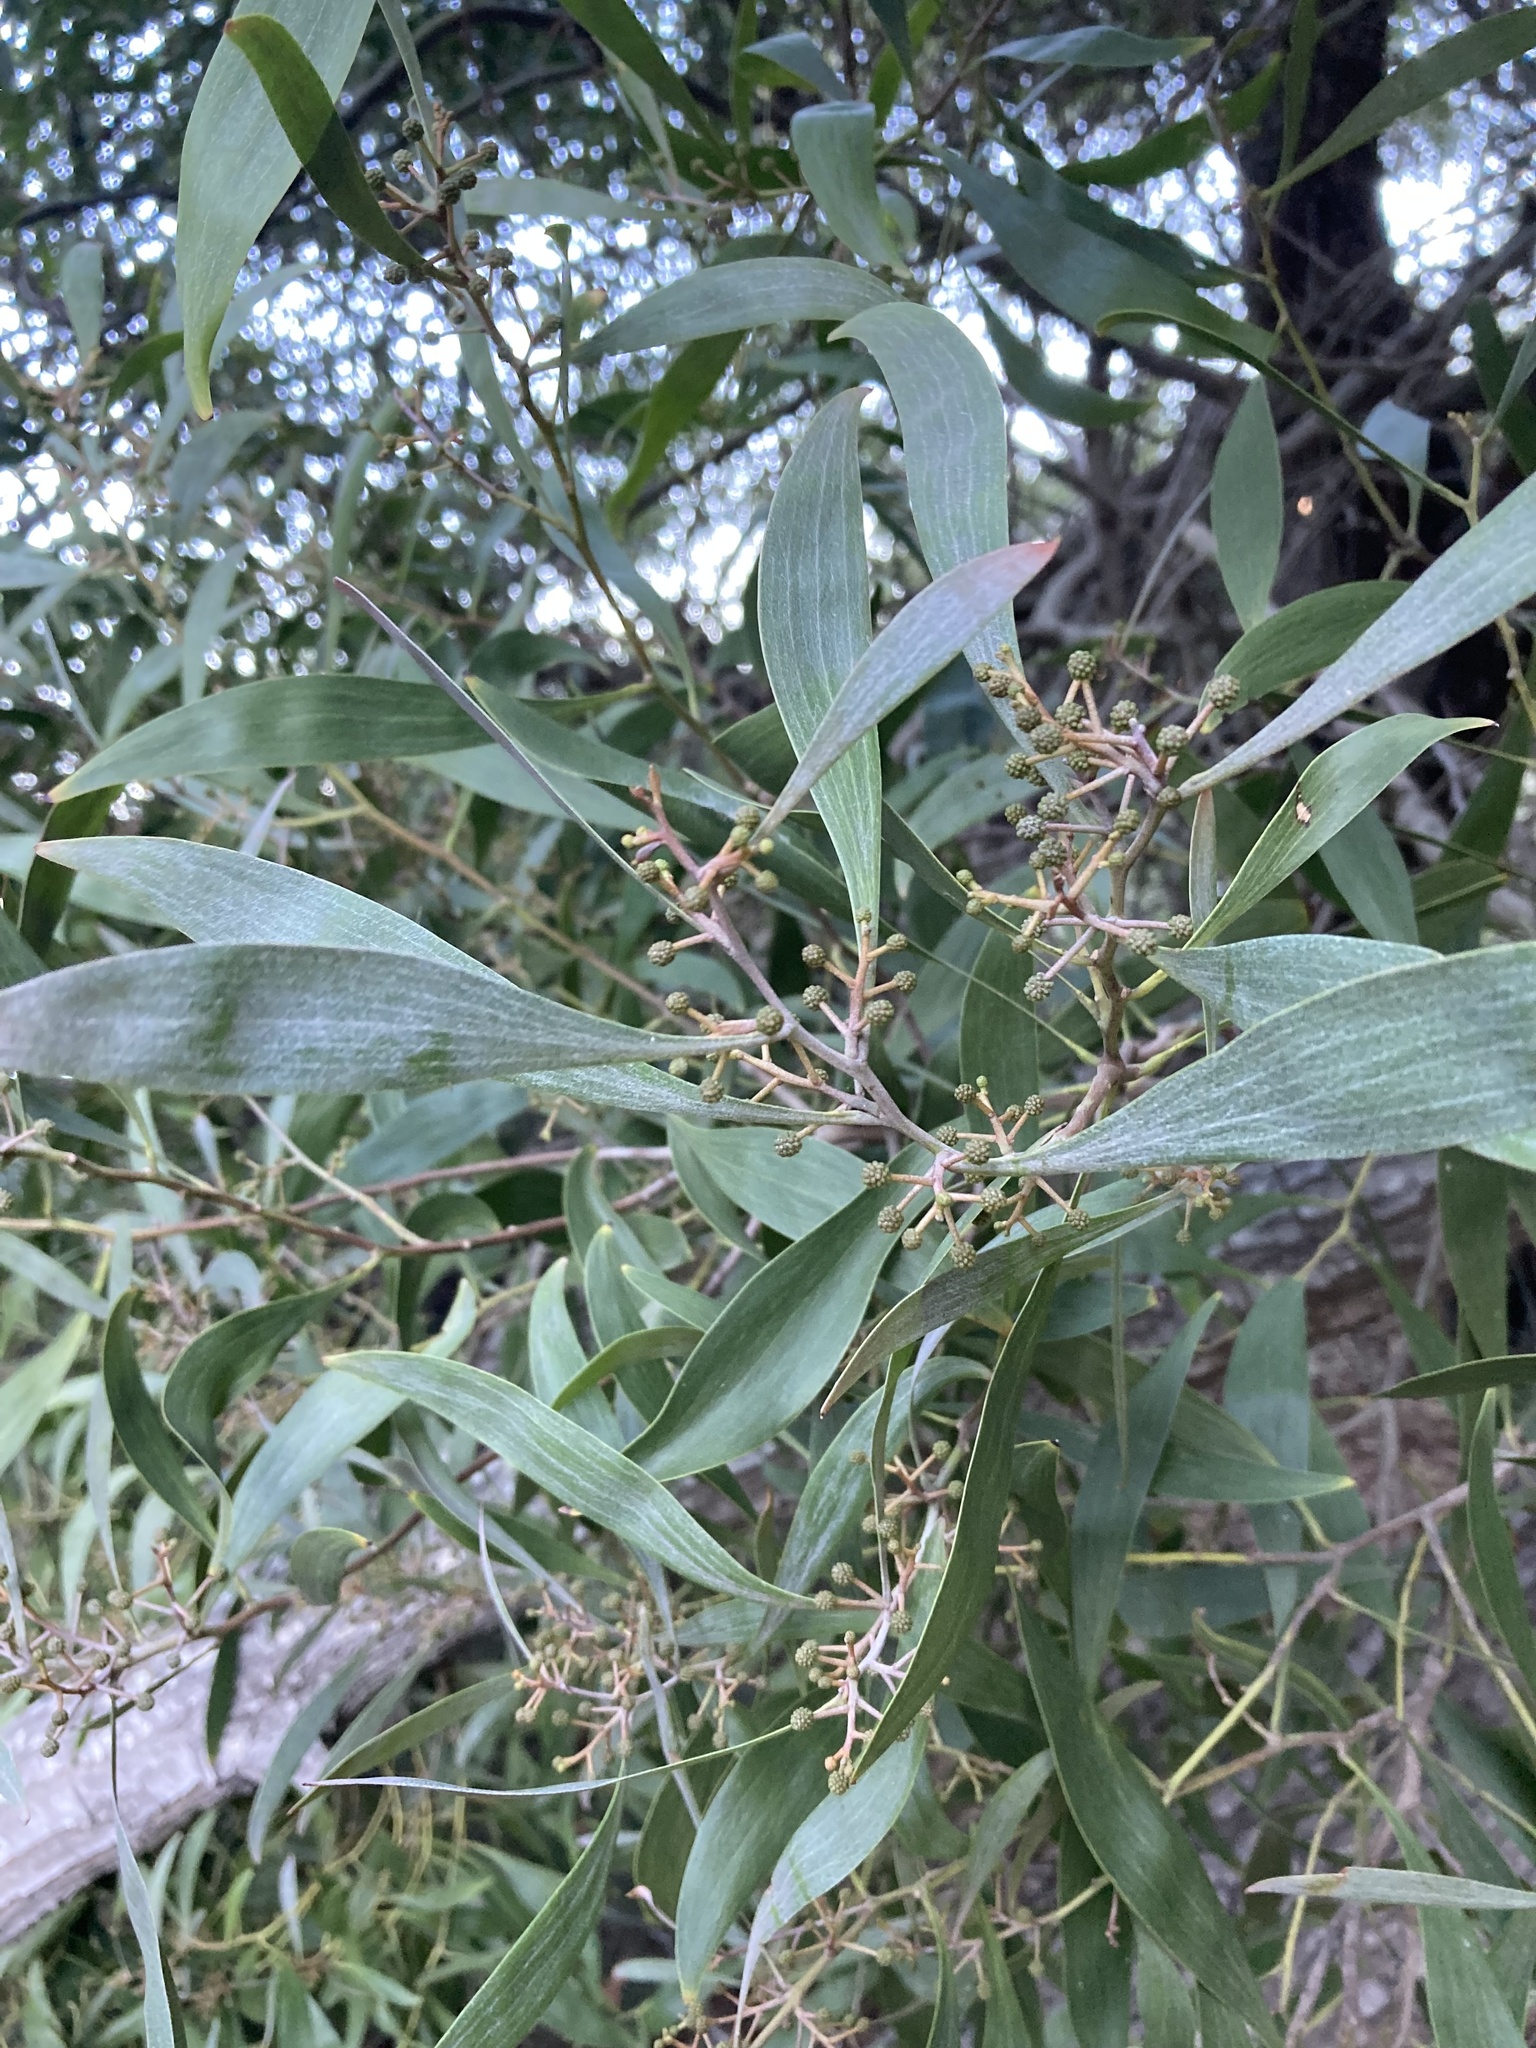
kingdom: Plantae
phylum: Tracheophyta
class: Magnoliopsida
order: Fabales
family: Fabaceae
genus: Acacia
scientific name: Acacia melanoxylon
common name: Blackwood
